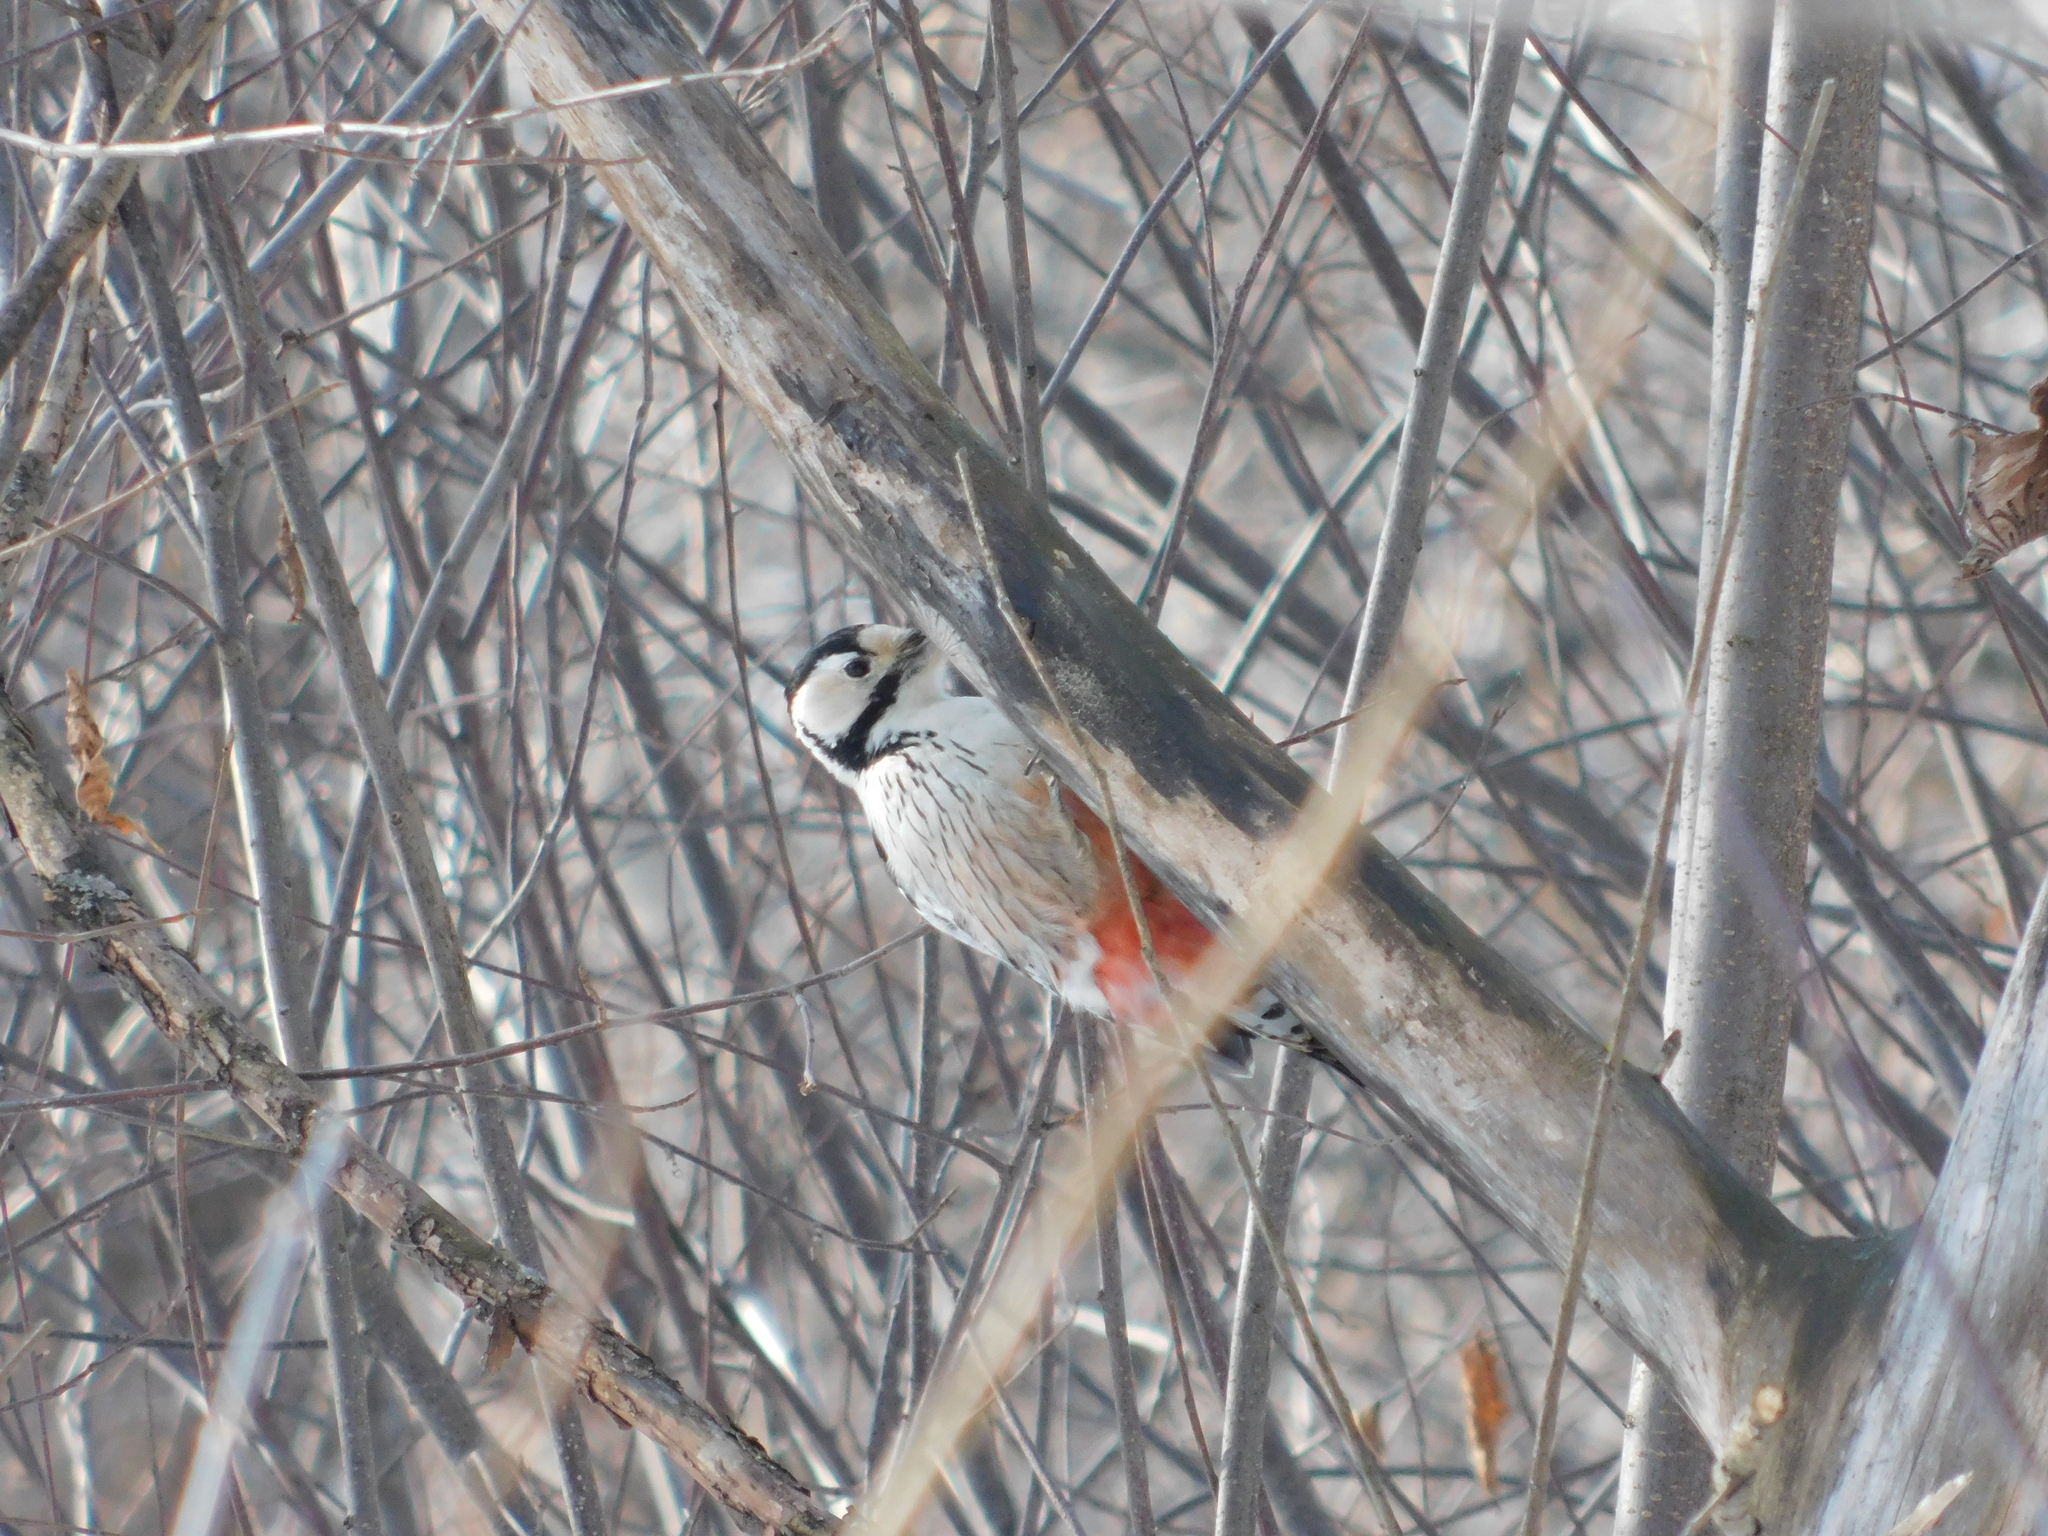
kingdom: Animalia
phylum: Chordata
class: Aves
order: Piciformes
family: Picidae
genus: Dendrocopos
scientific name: Dendrocopos leucotos
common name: White-backed woodpecker
